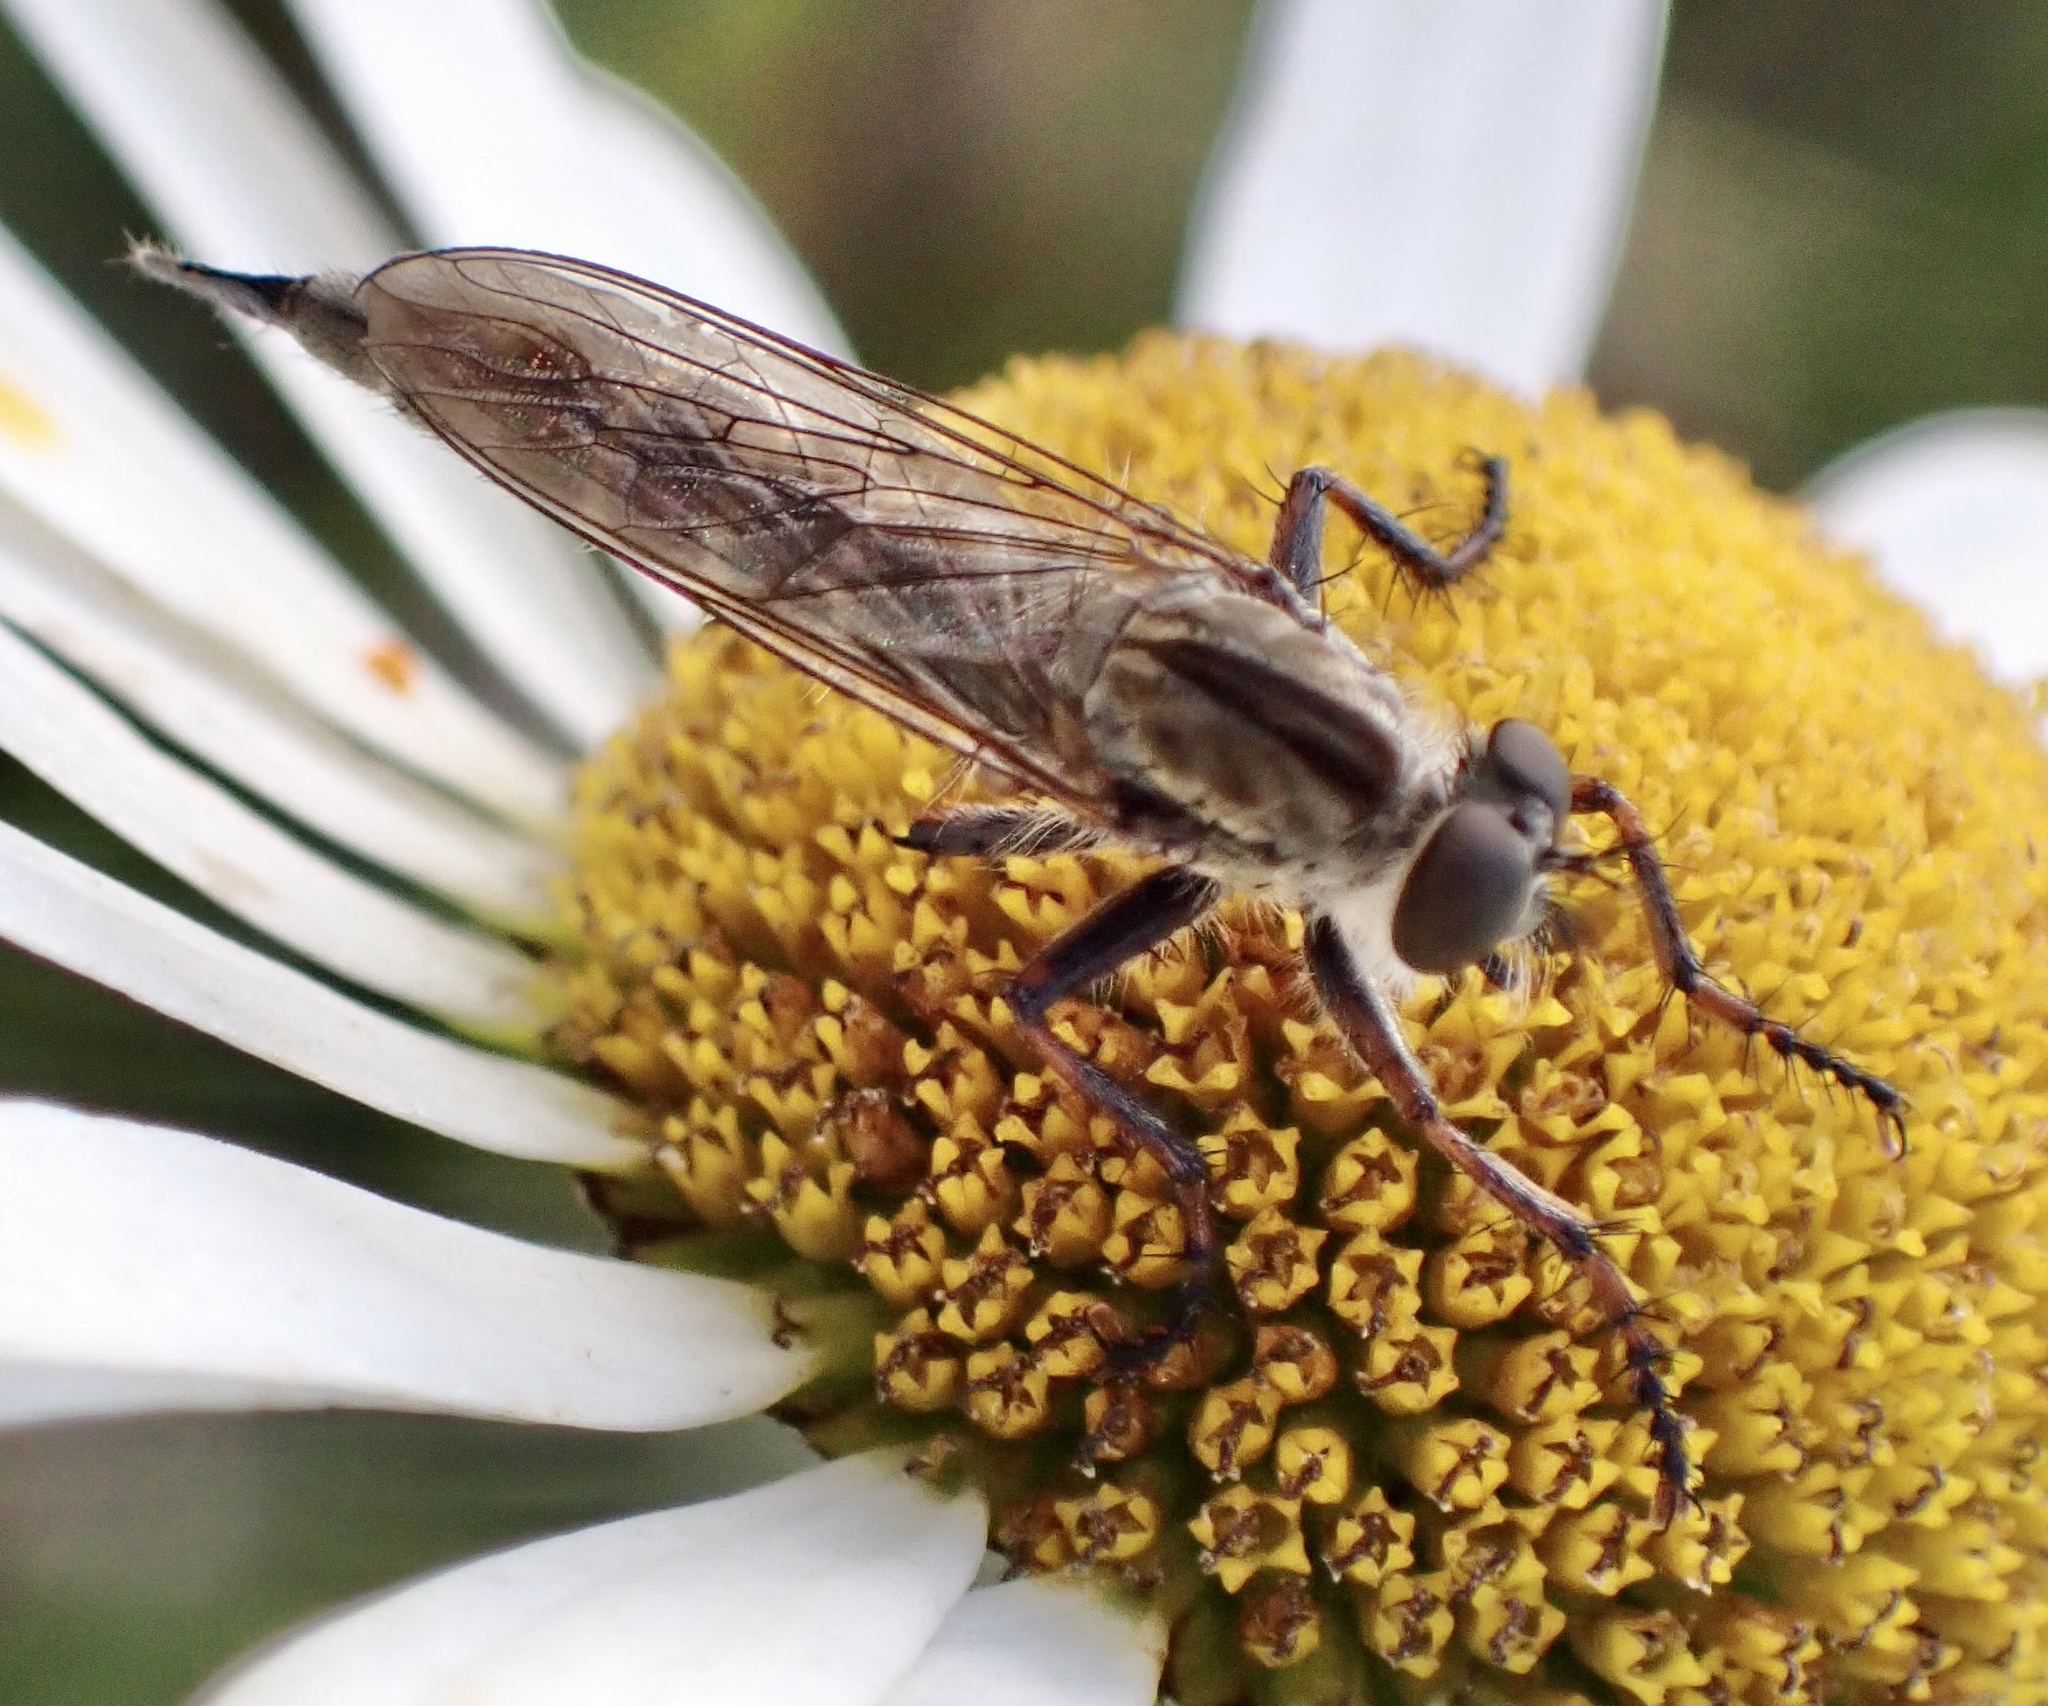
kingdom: Animalia
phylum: Arthropoda
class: Insecta
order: Diptera
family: Asilidae
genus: Machimus
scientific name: Machimus atricapillus
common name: Kite-tailed robberfly
